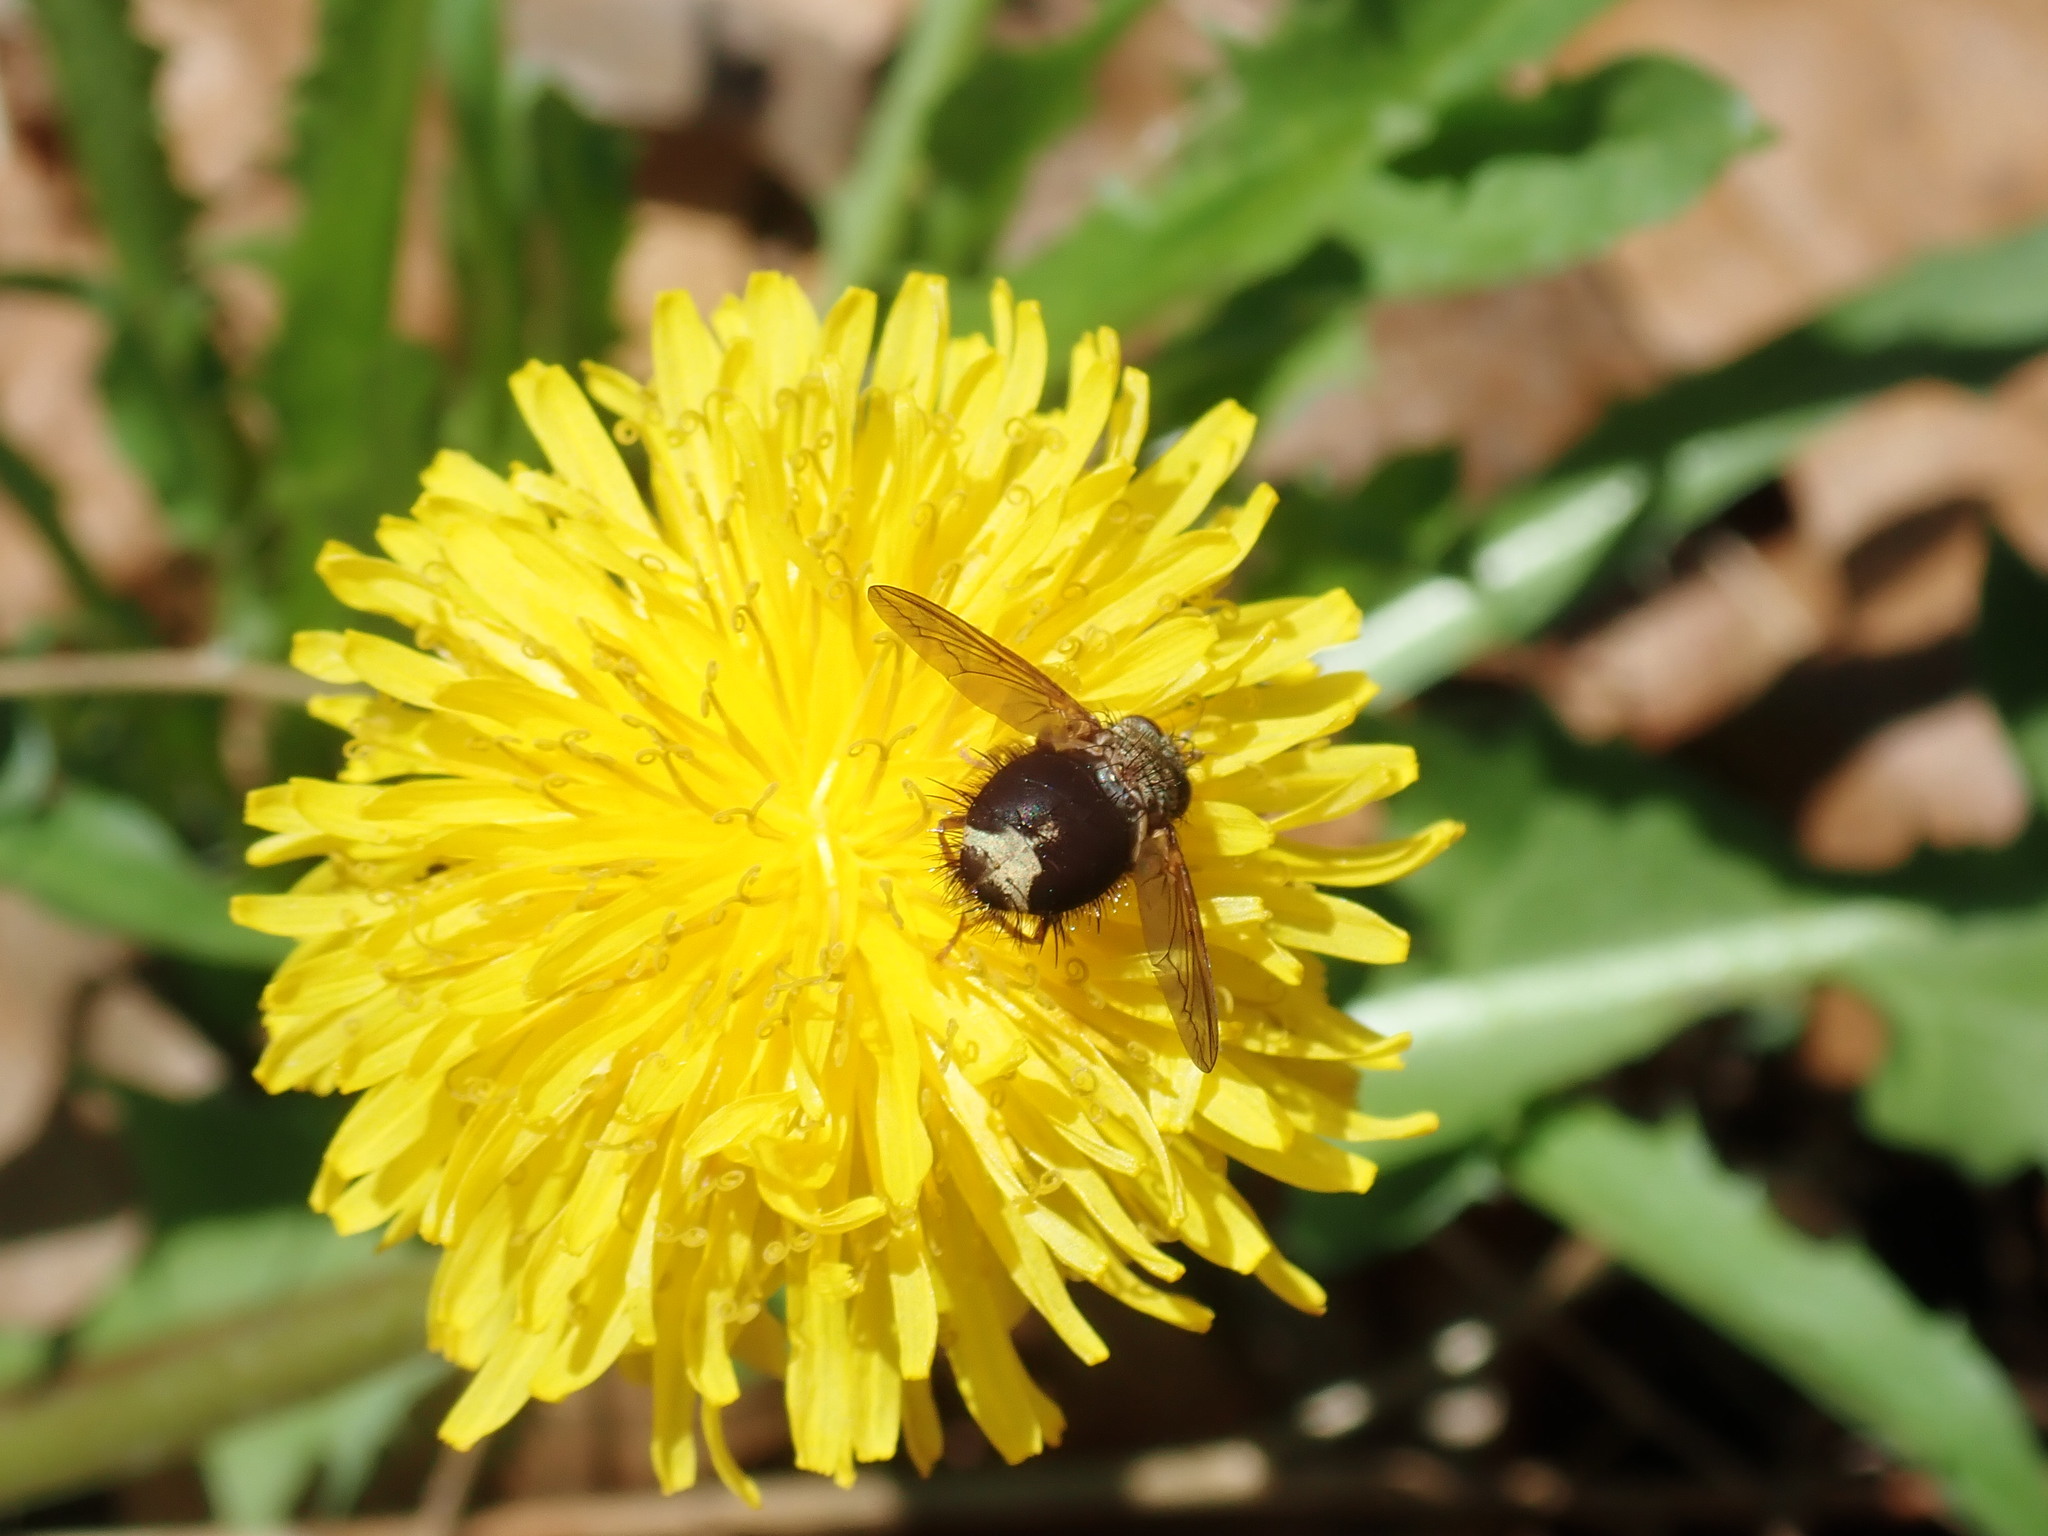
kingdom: Animalia
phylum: Arthropoda
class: Insecta
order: Diptera
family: Tachinidae
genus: Epalpus
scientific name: Epalpus signifer
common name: Early tachinid fly
